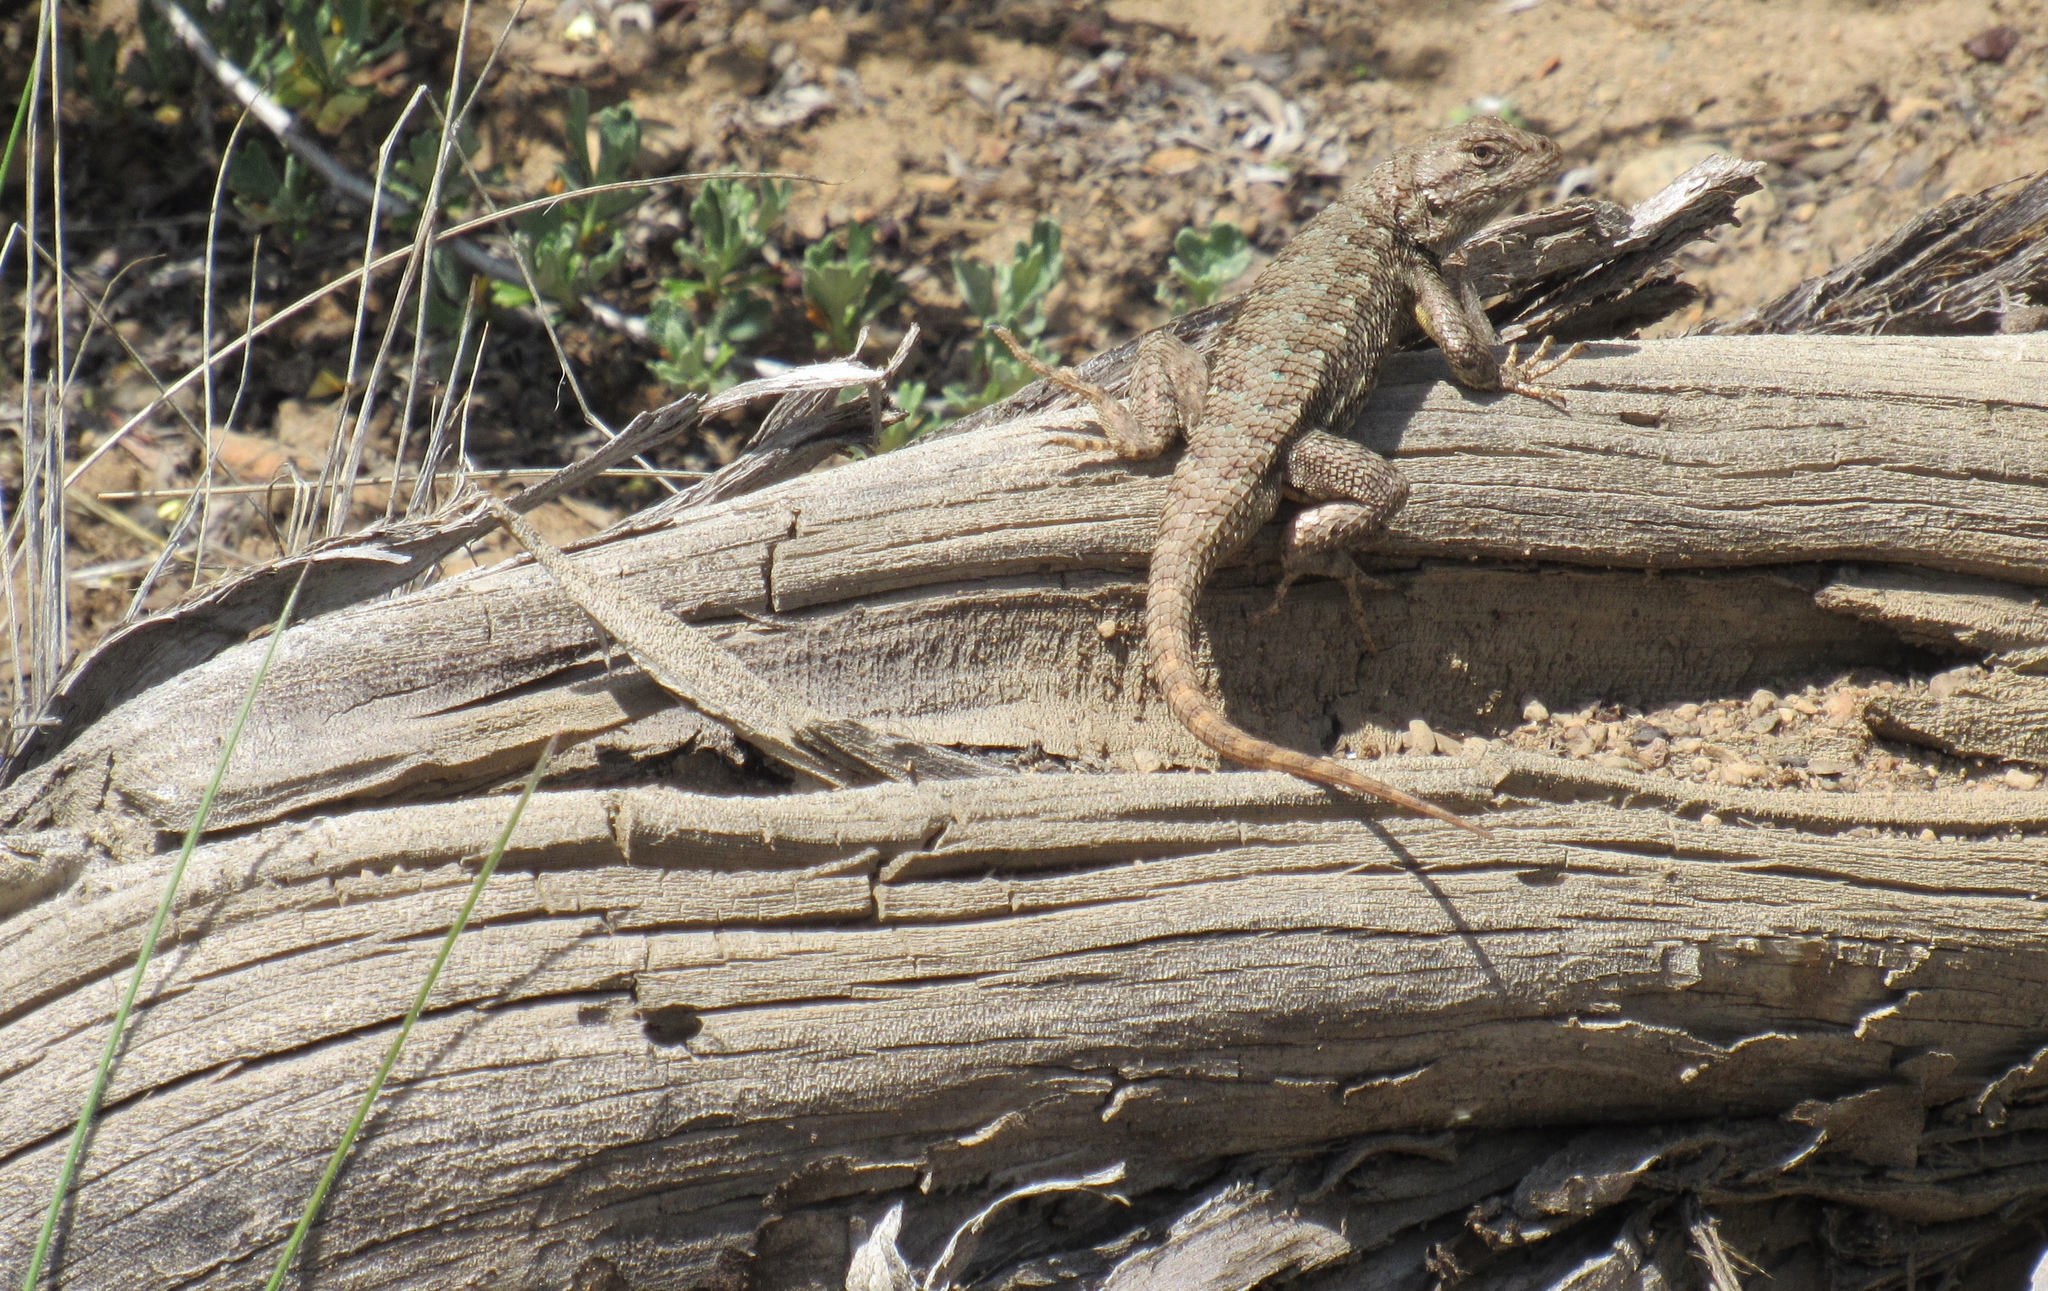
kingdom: Animalia
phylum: Chordata
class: Squamata
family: Phrynosomatidae
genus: Sceloporus
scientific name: Sceloporus occidentalis
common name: Western fence lizard
